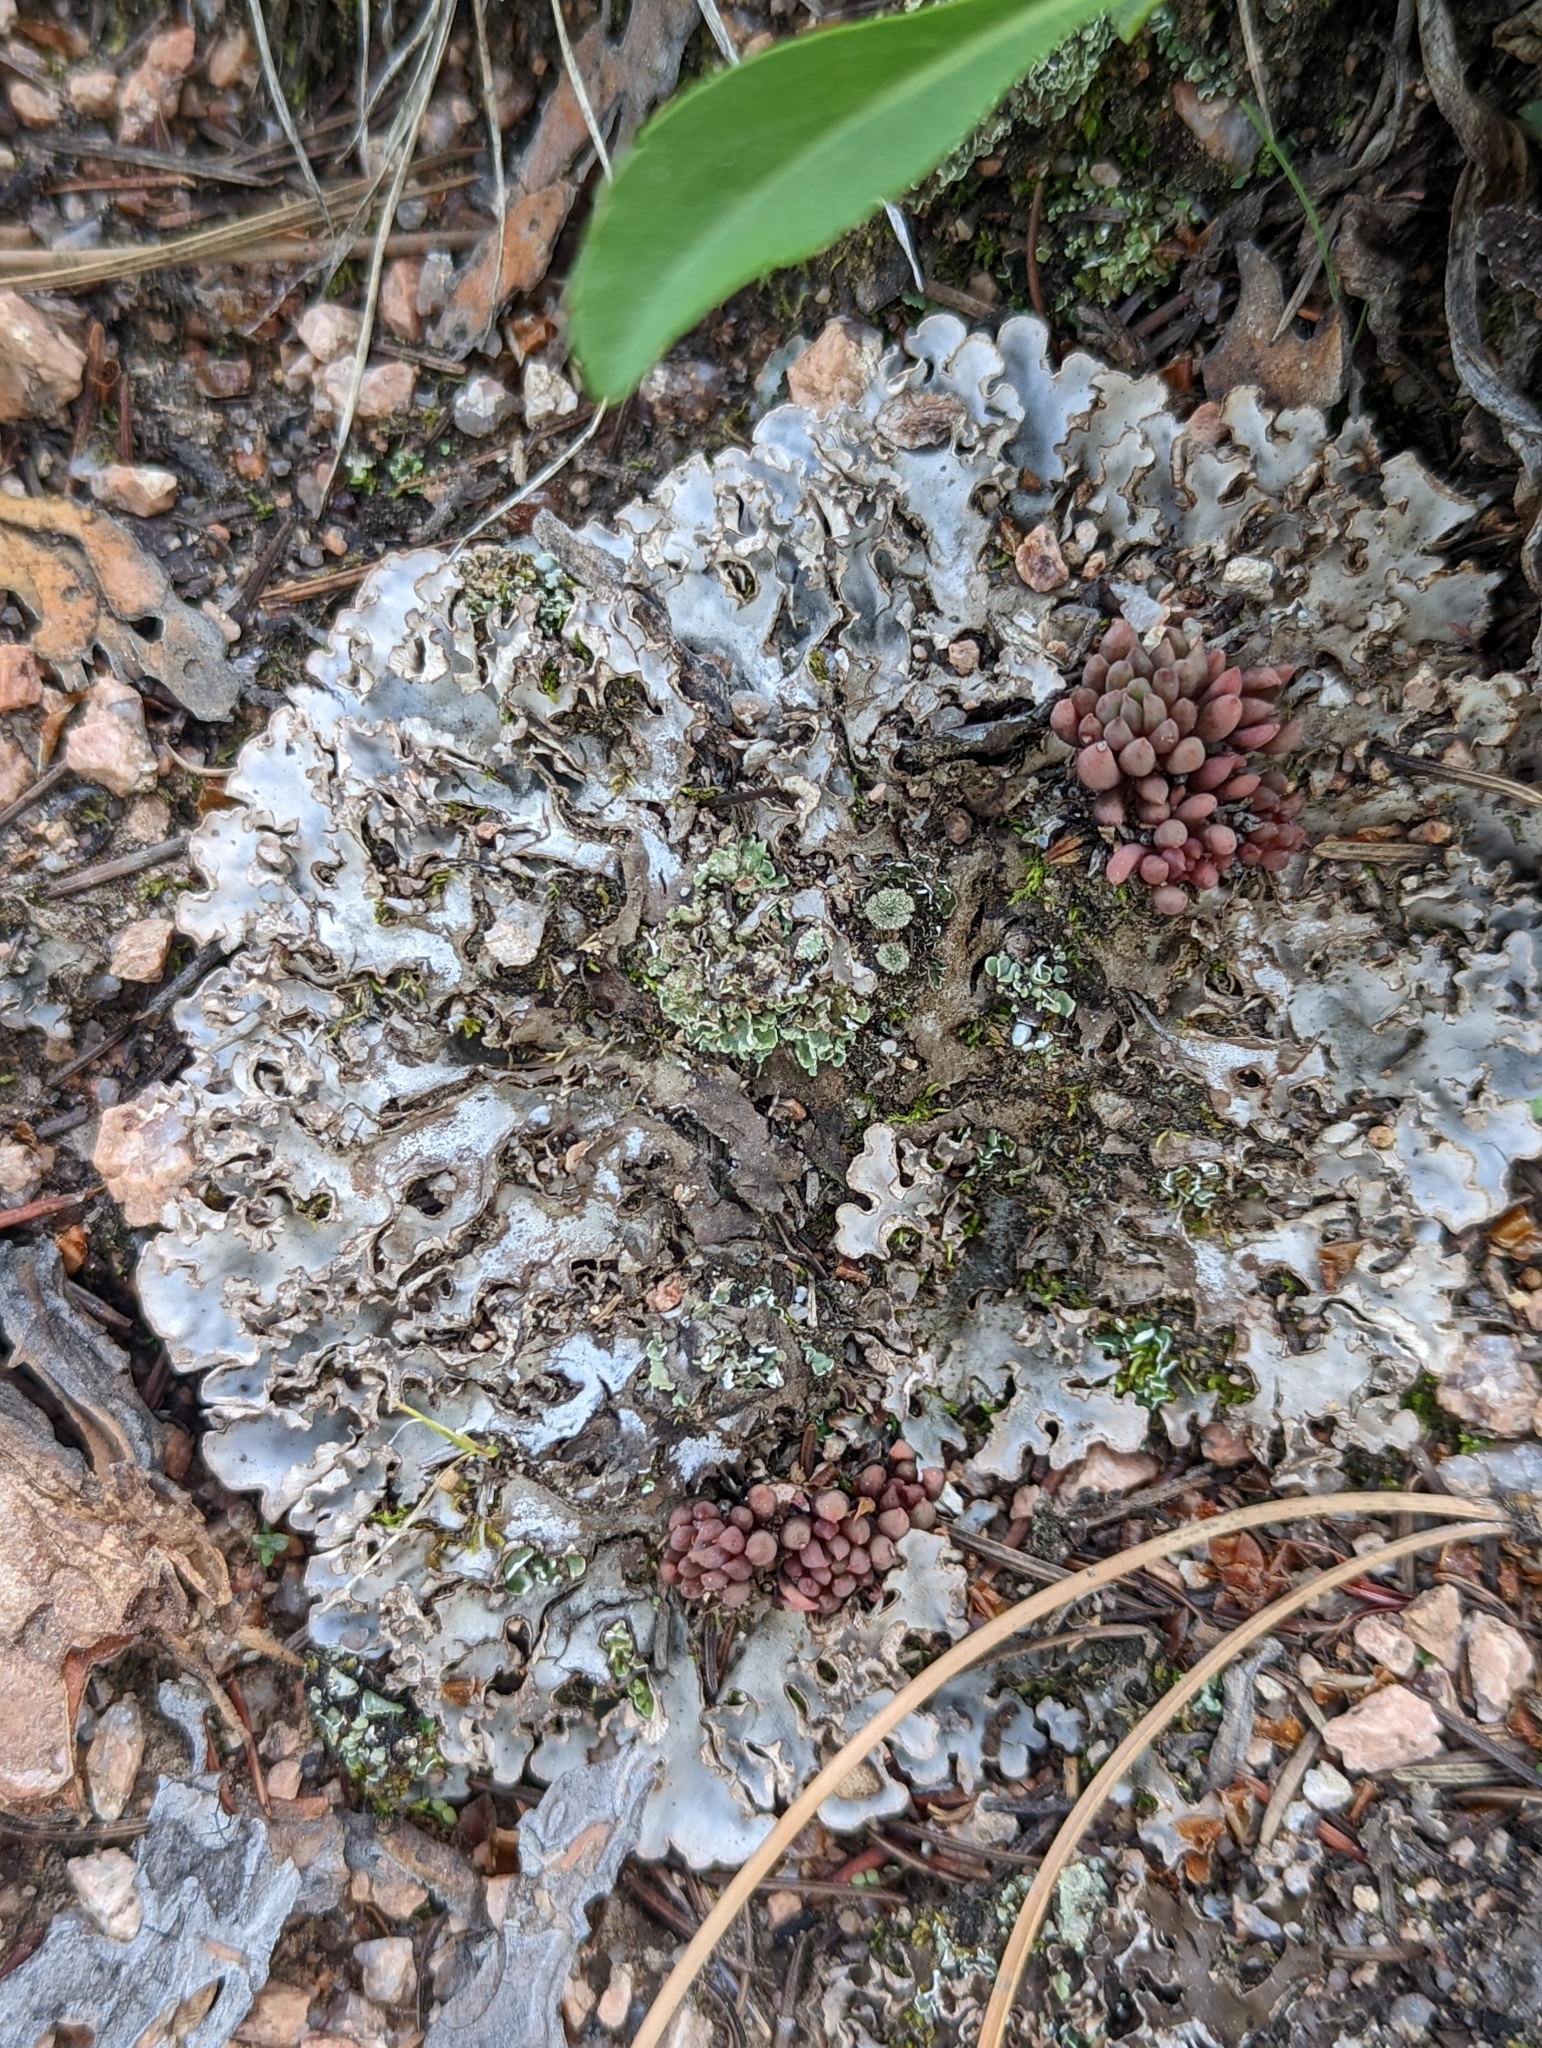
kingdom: Plantae
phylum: Tracheophyta
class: Magnoliopsida
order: Saxifragales
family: Crassulaceae
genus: Sedum
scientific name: Sedum lanceolatum
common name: Common stonecrop
